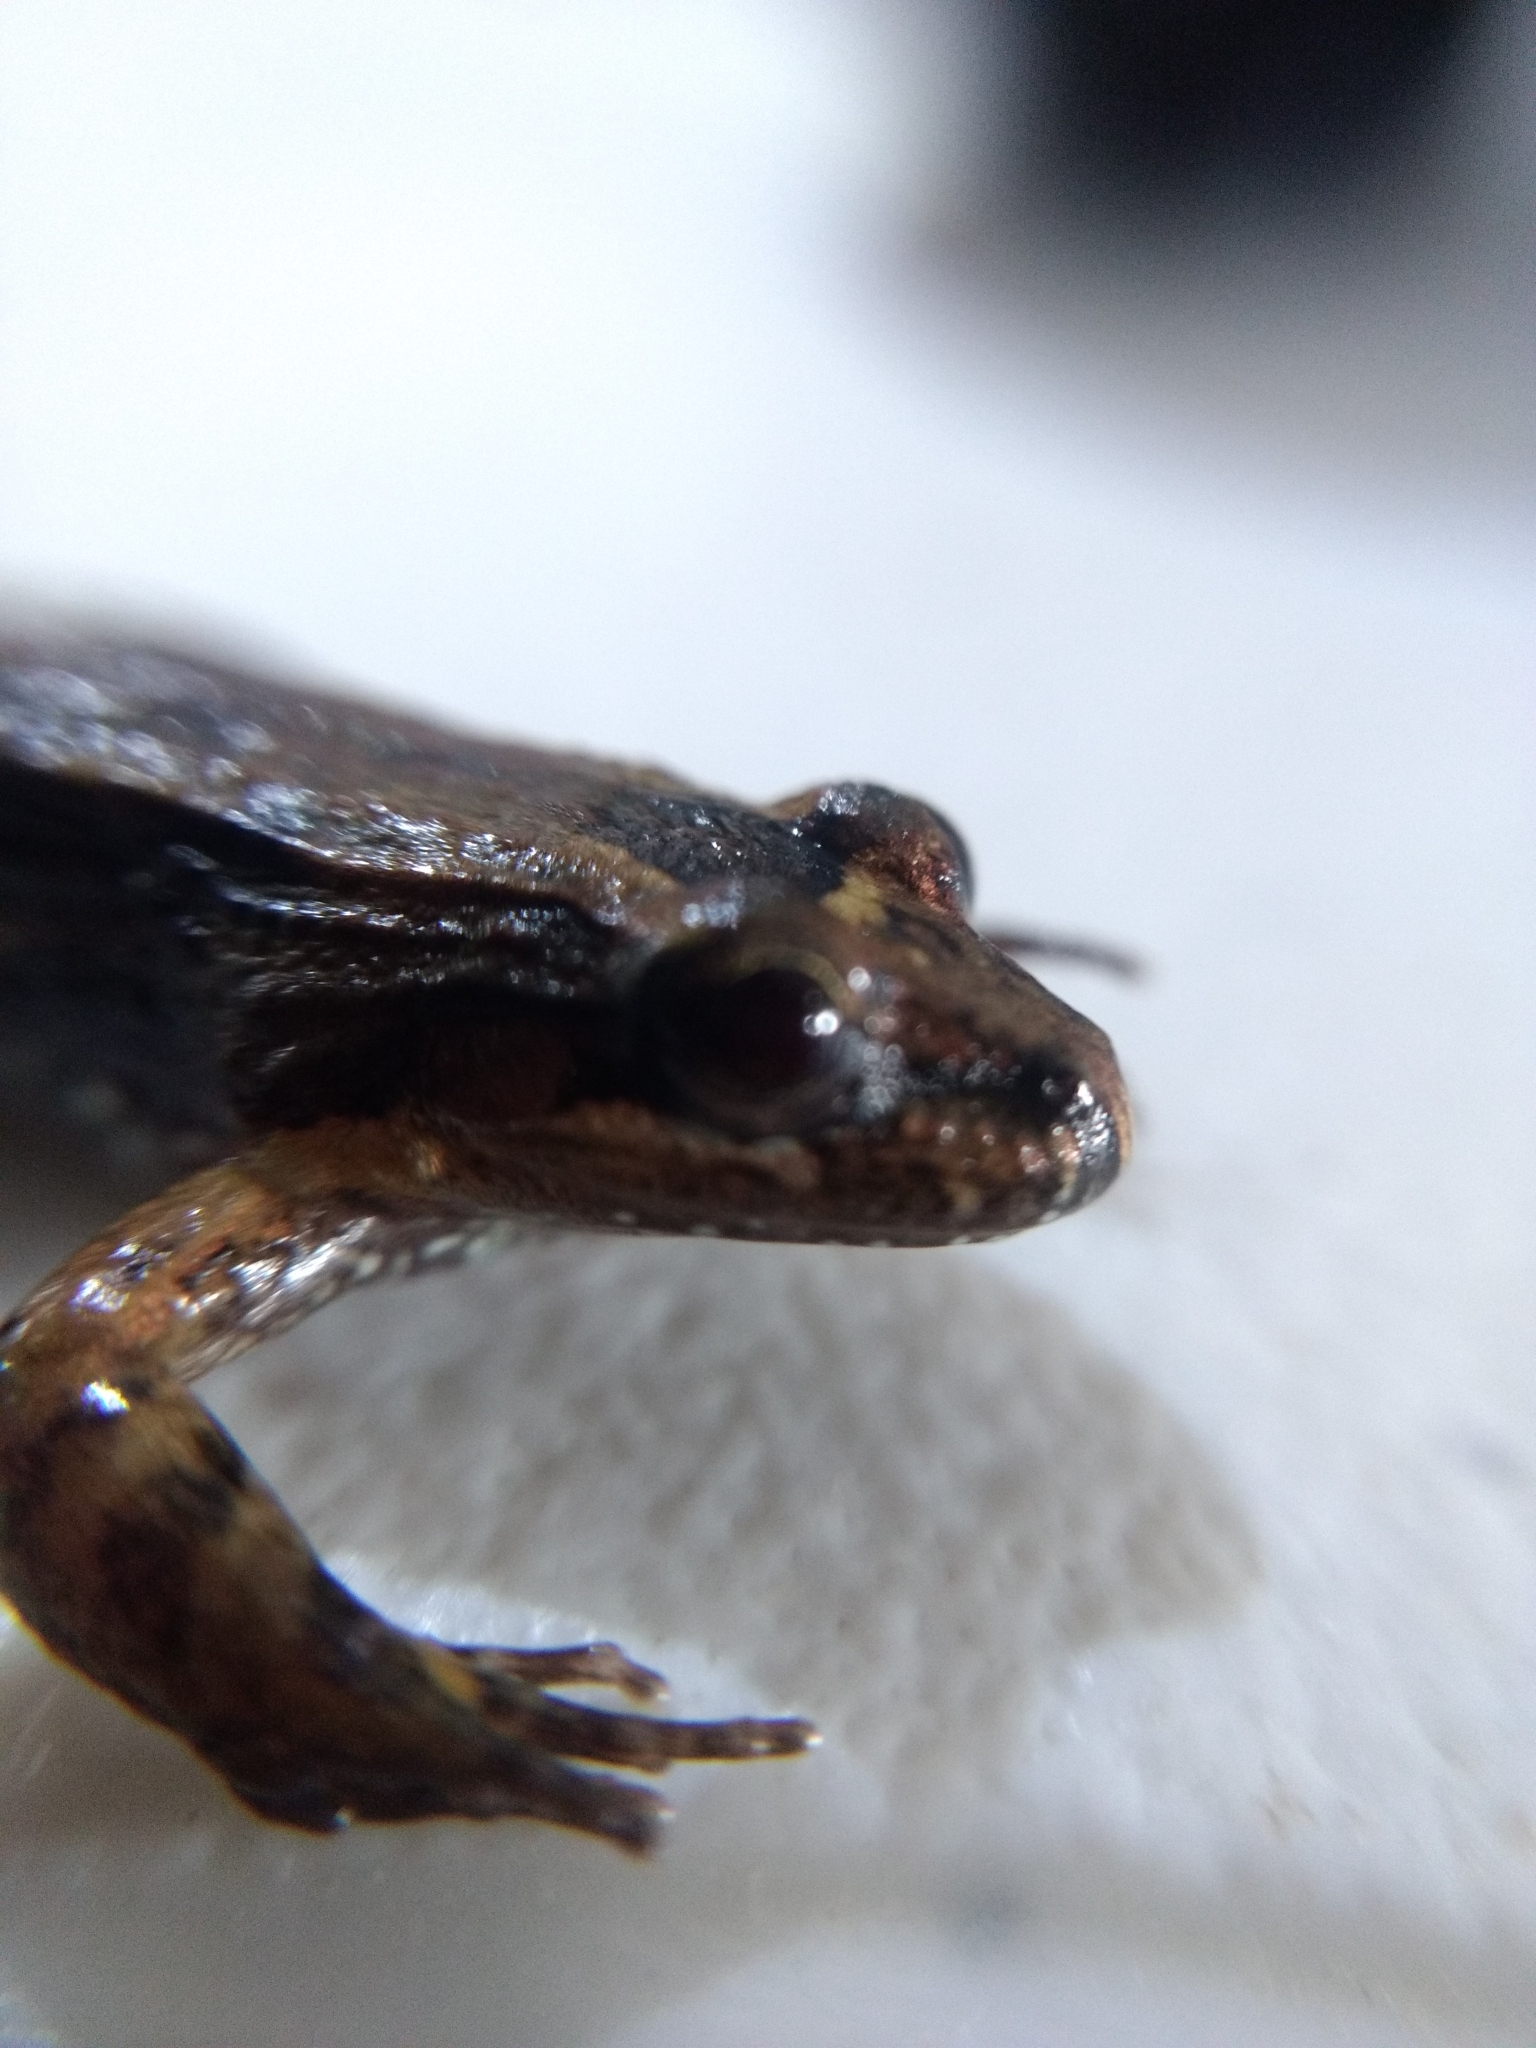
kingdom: Animalia
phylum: Chordata
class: Amphibia
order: Anura
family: Leptodactylidae
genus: Leptodactylus
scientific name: Leptodactylus melanonotus
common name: Fringe-toed foamfrog
